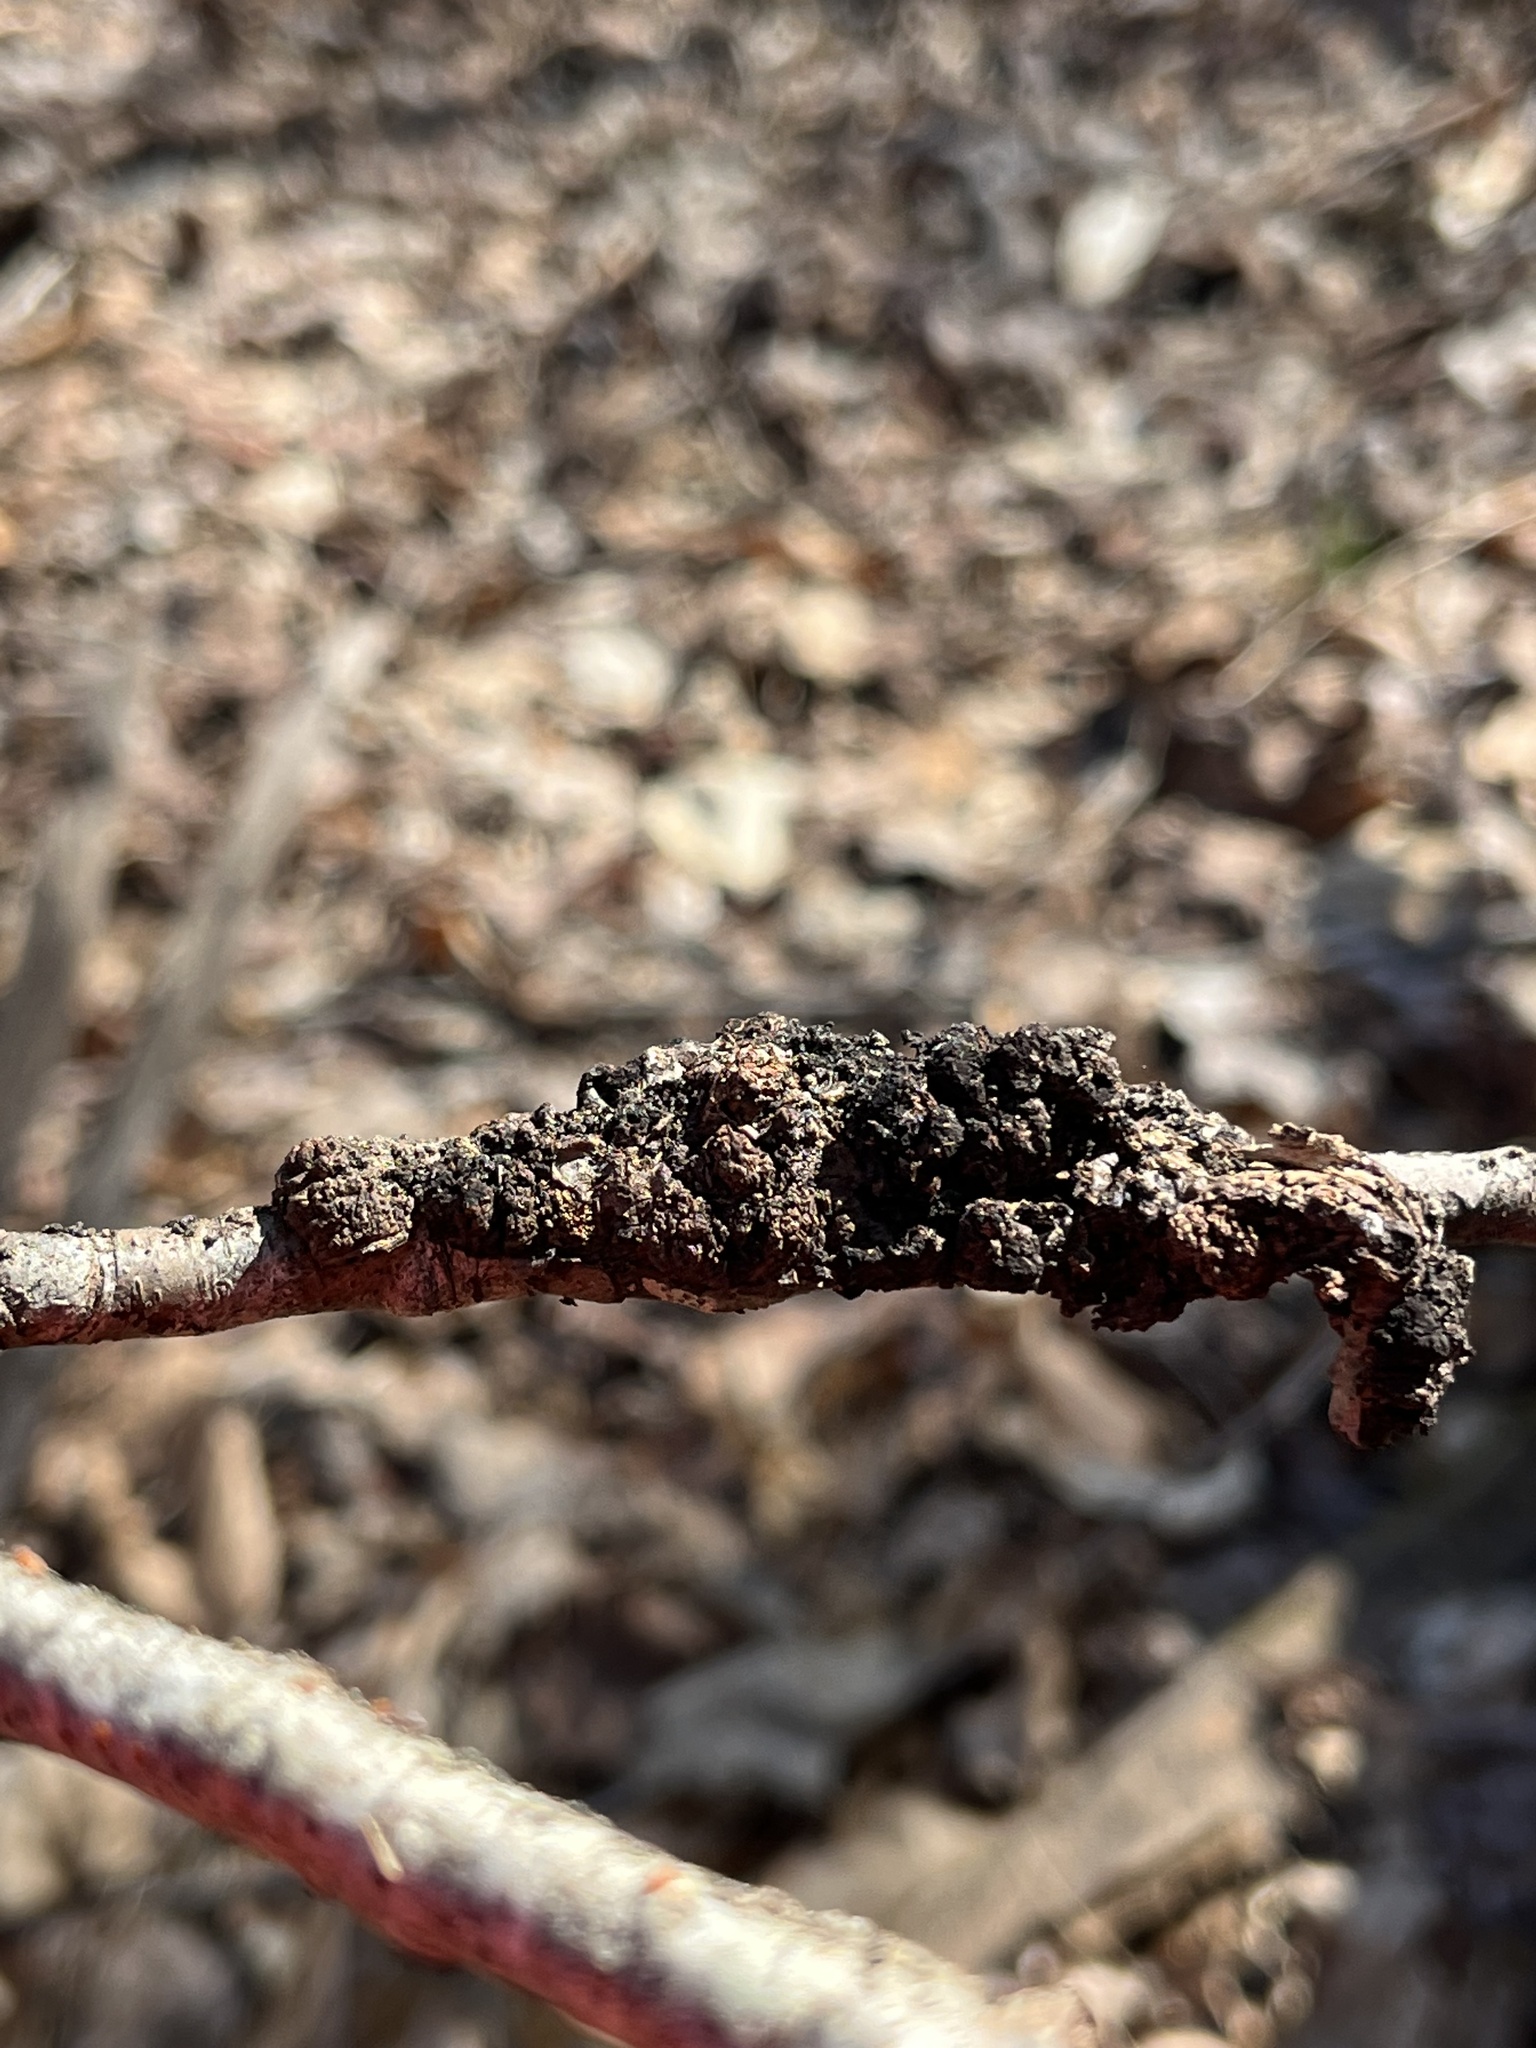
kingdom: Fungi
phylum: Ascomycota
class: Dothideomycetes
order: Venturiales
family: Venturiaceae
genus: Apiosporina
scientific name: Apiosporina morbosa
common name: Black knot
